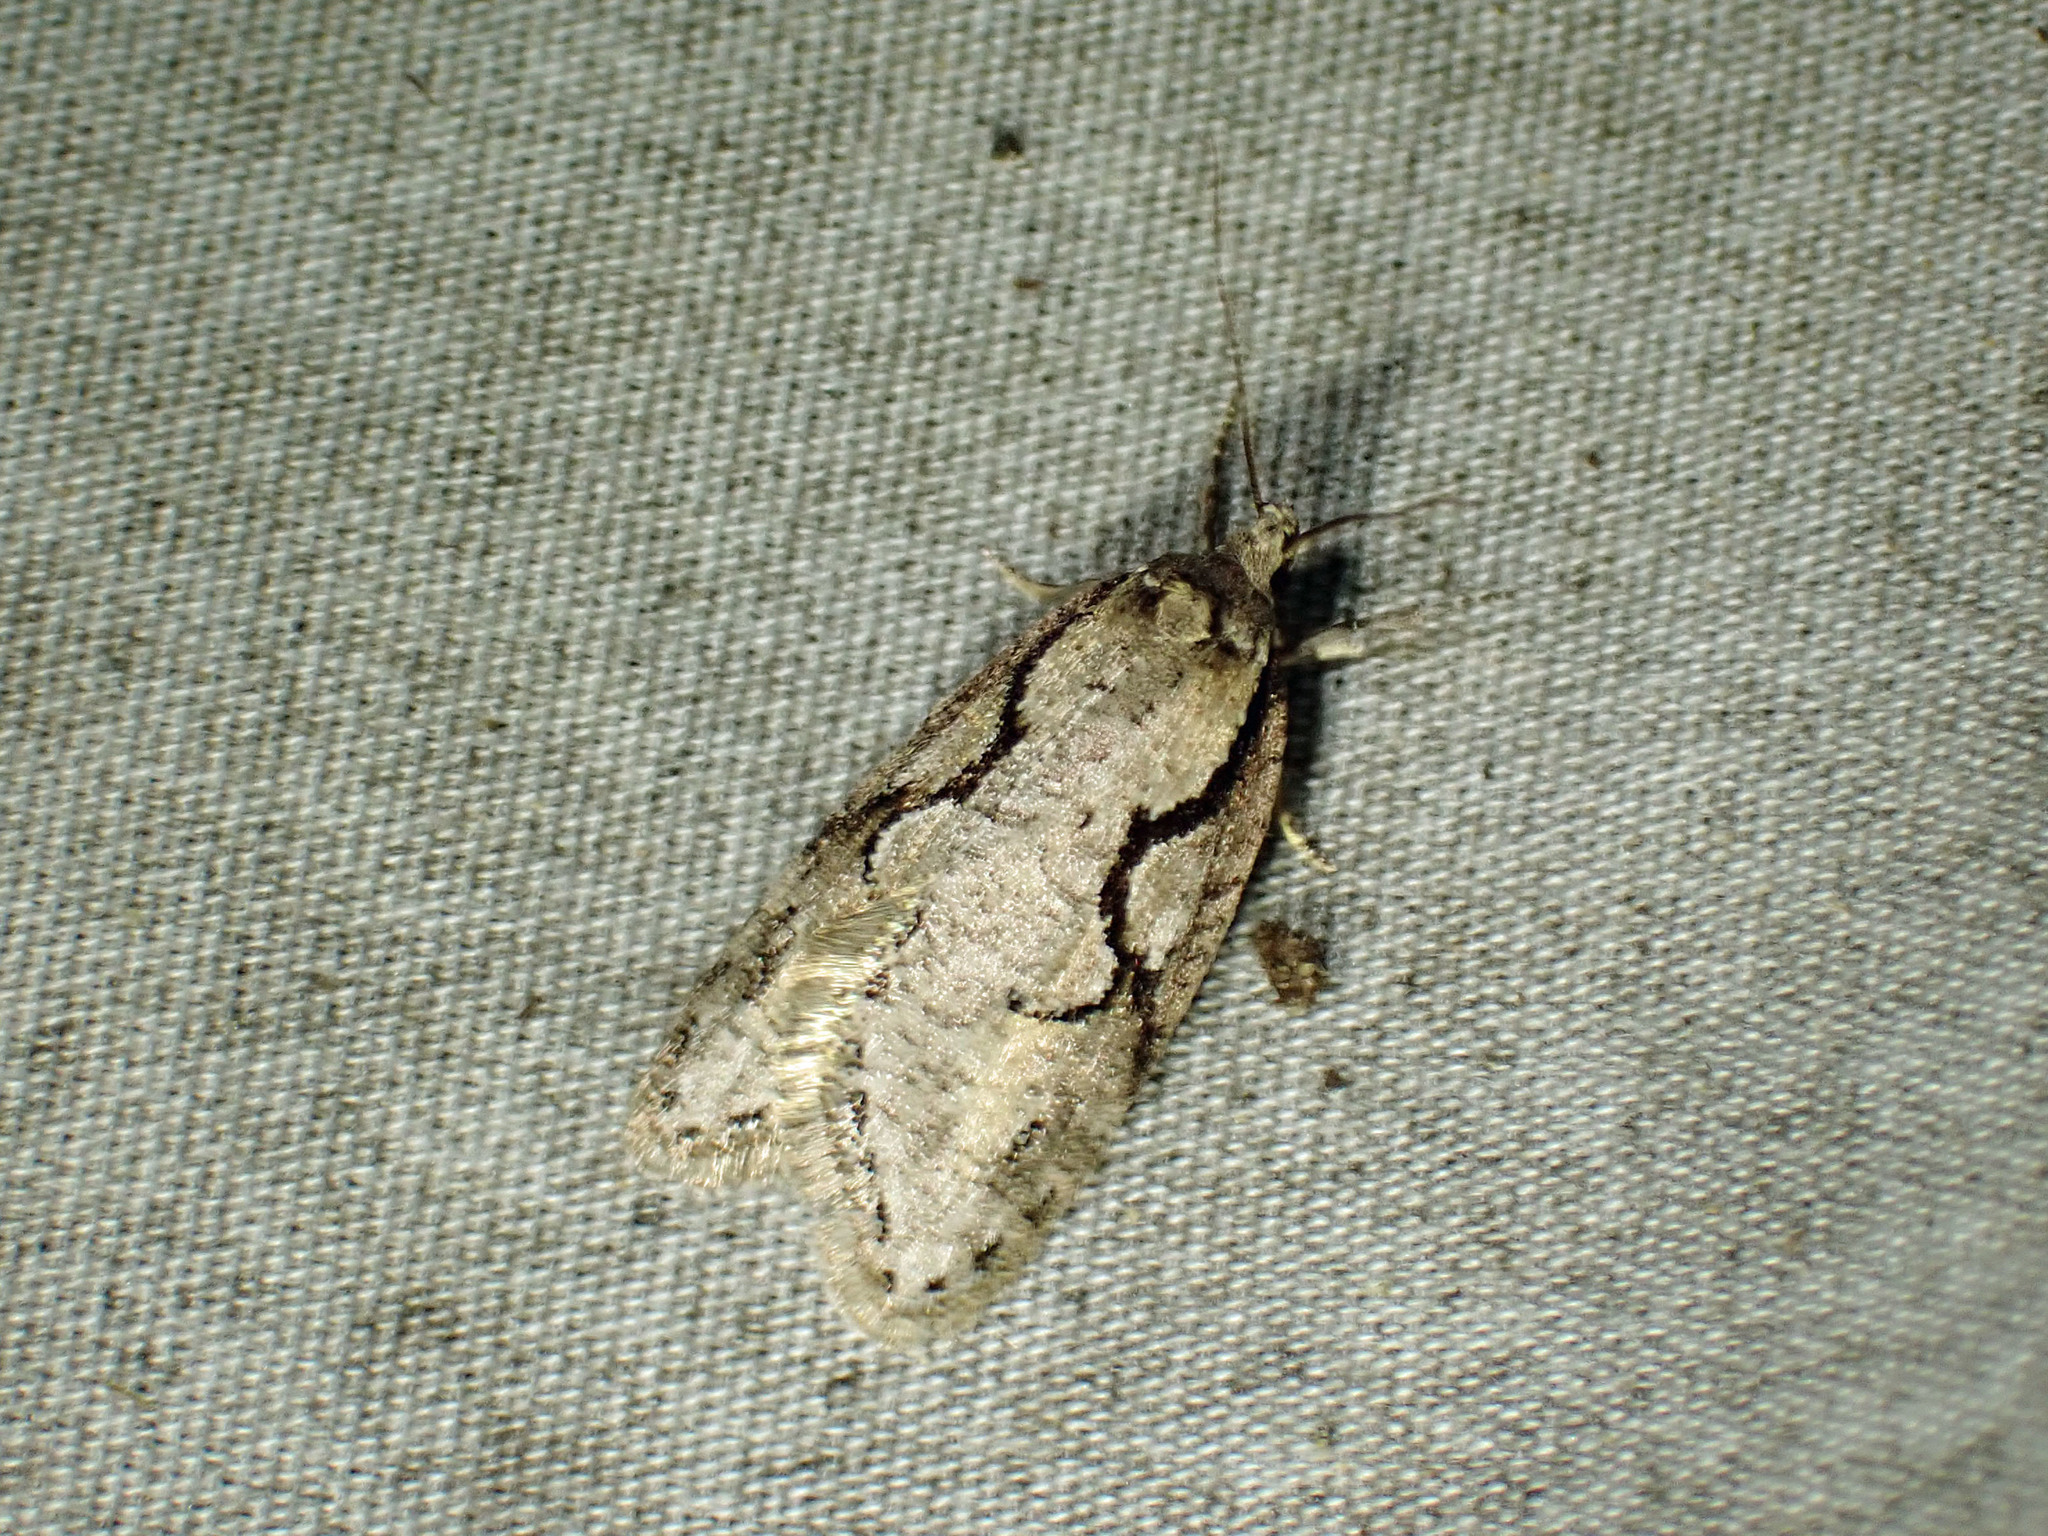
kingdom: Animalia
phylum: Arthropoda
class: Insecta
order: Lepidoptera
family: Depressariidae
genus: Semioscopis
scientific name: Semioscopis packardella
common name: Packard's concealer moth
